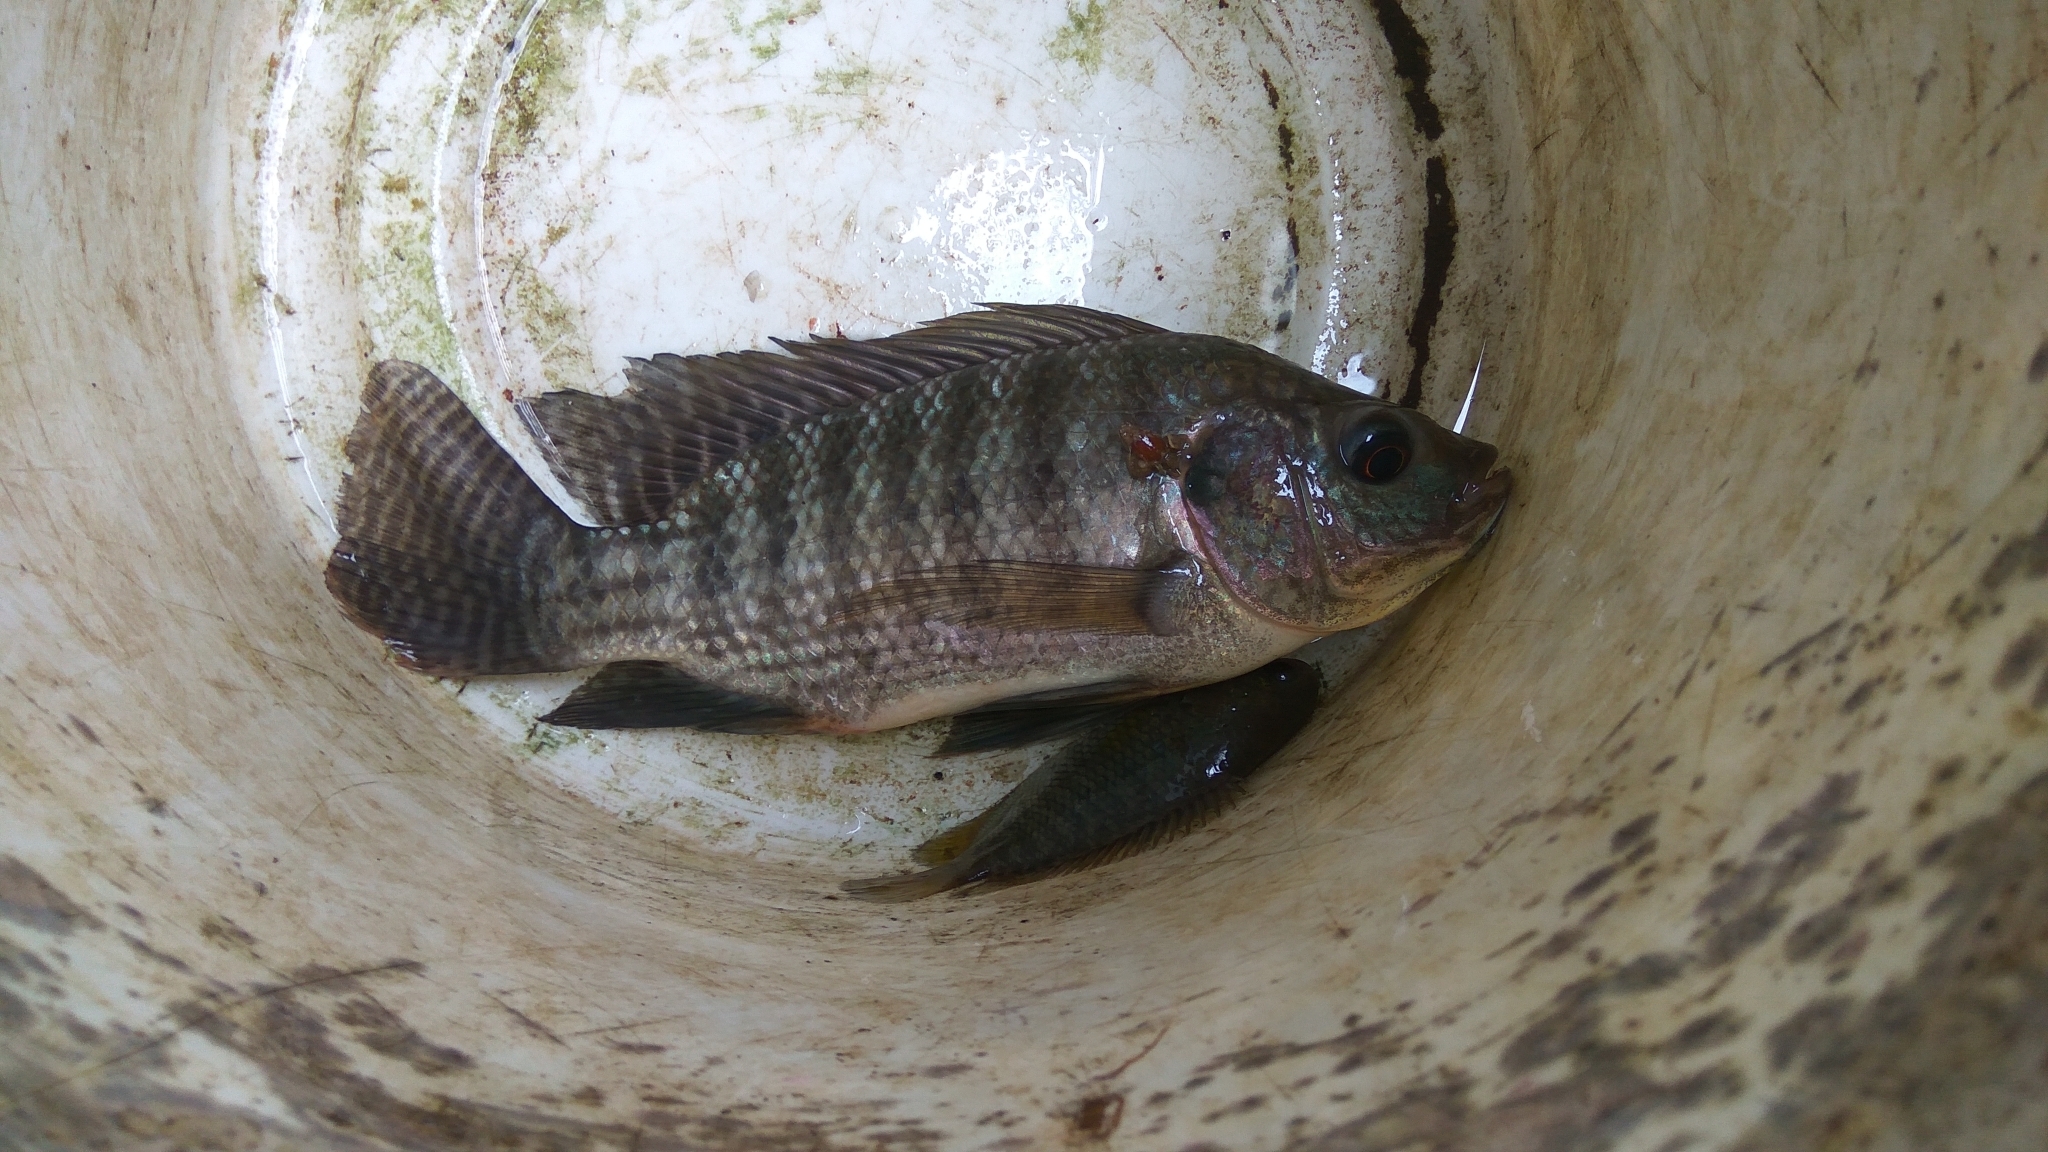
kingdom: Animalia
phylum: Chordata
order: Perciformes
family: Cichlidae
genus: Oreochromis
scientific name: Oreochromis niloticus
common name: Nile tilapia
